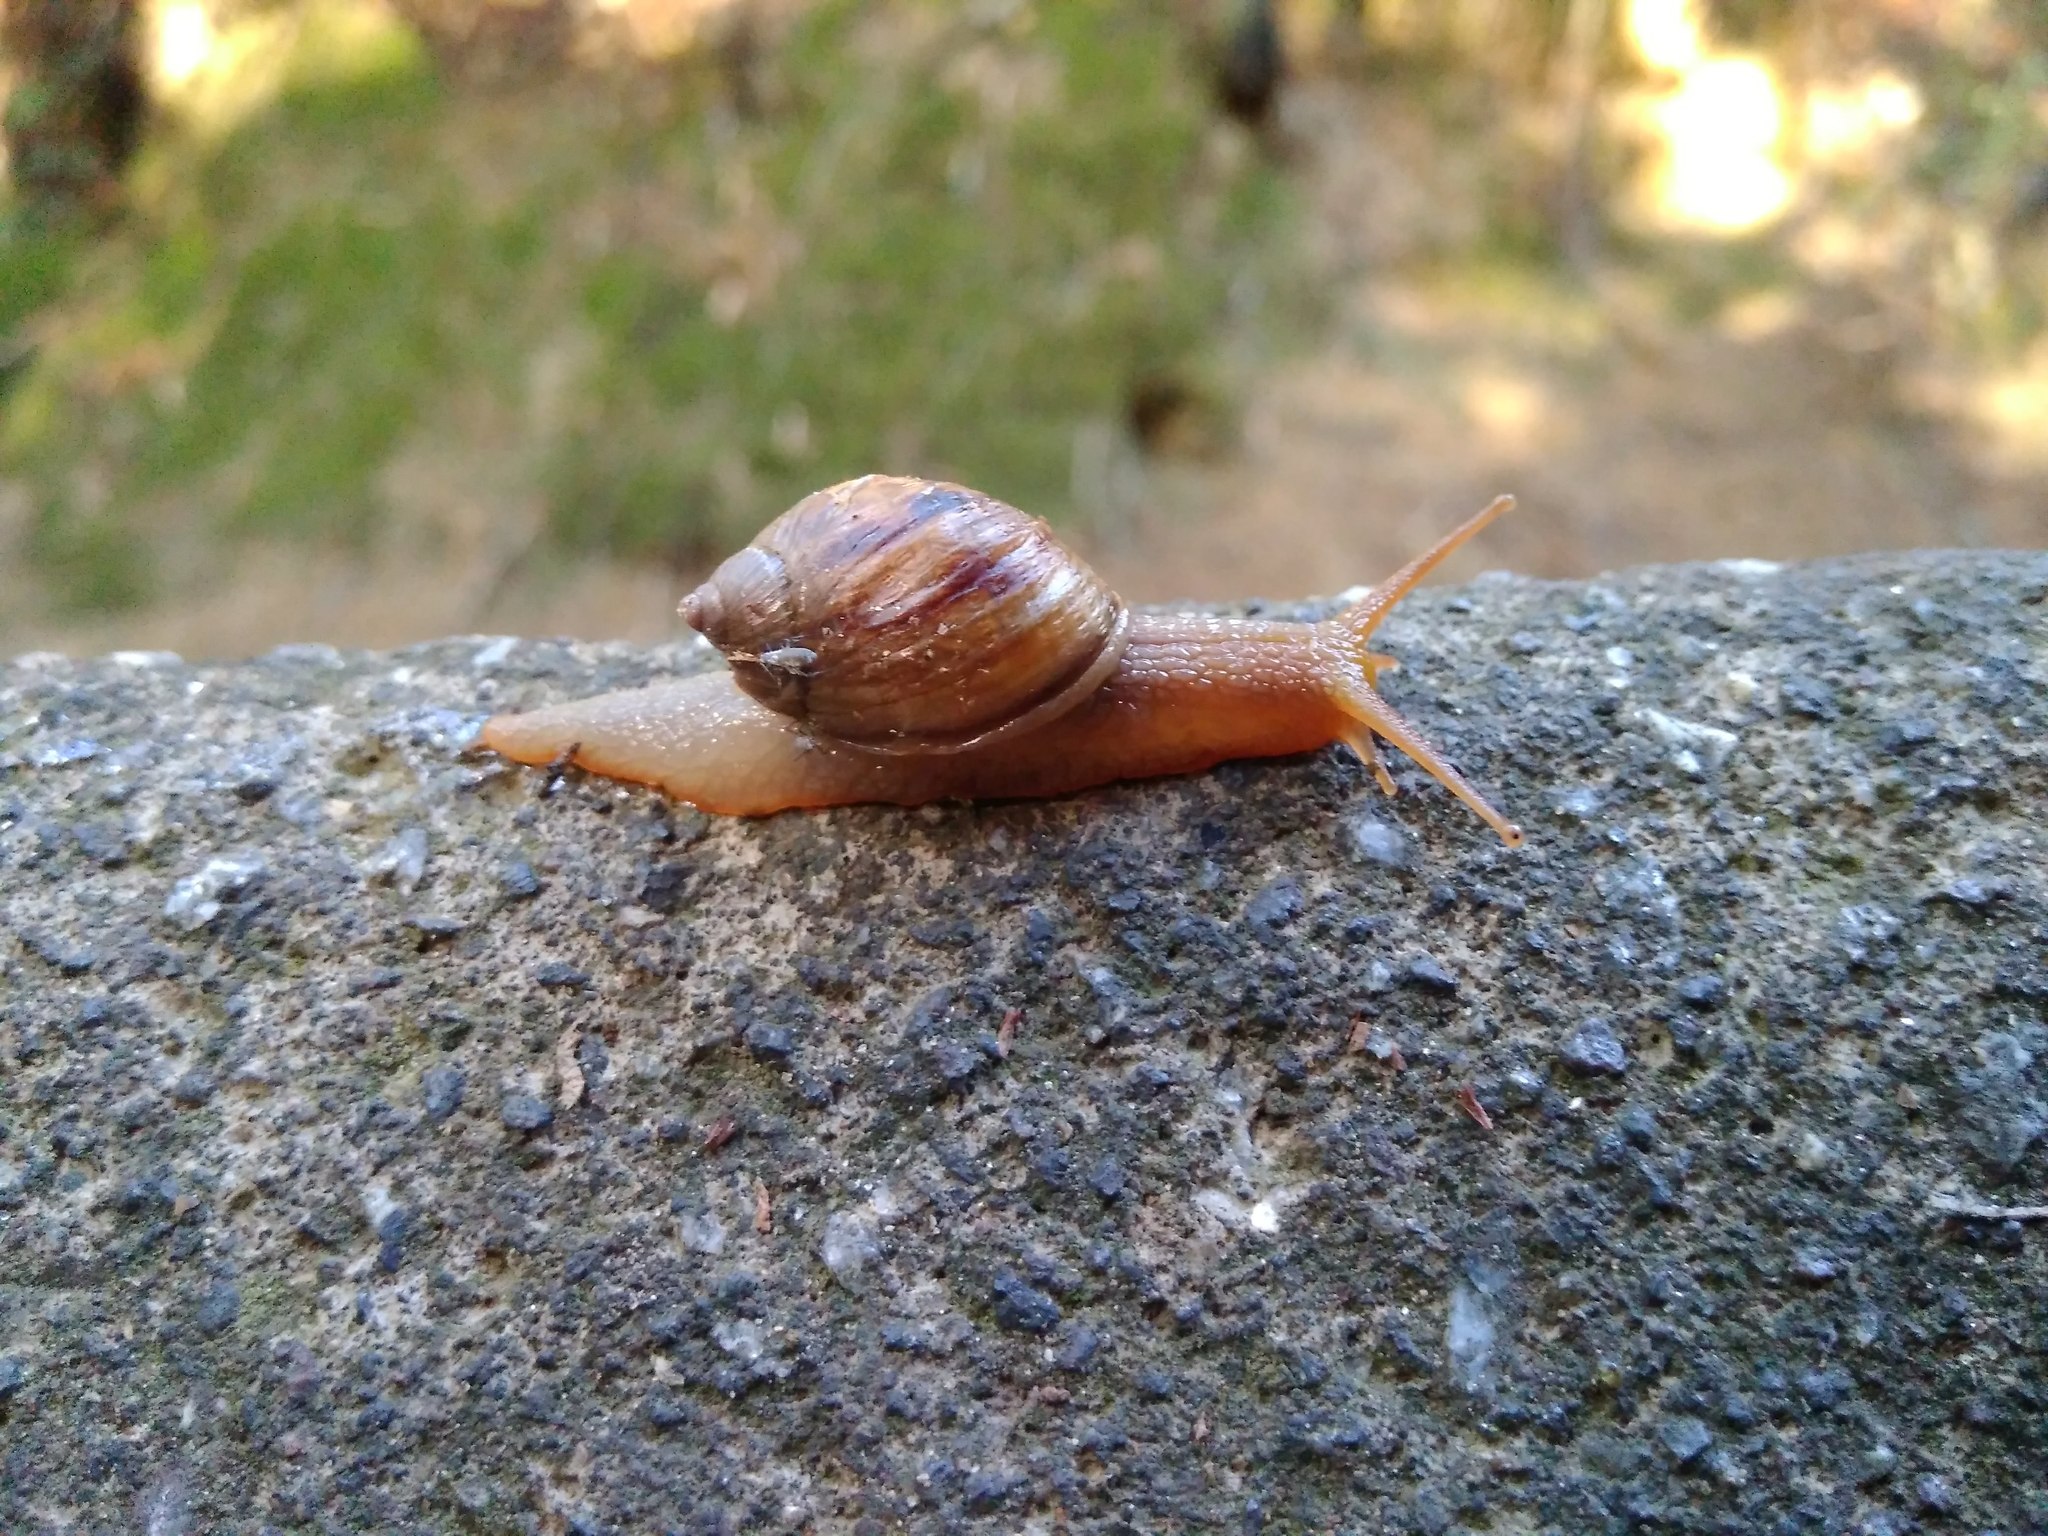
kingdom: Animalia
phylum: Mollusca
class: Gastropoda
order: Stylommatophora
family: Bothriembryontidae
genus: Plectostylus
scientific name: Plectostylus araucanus
